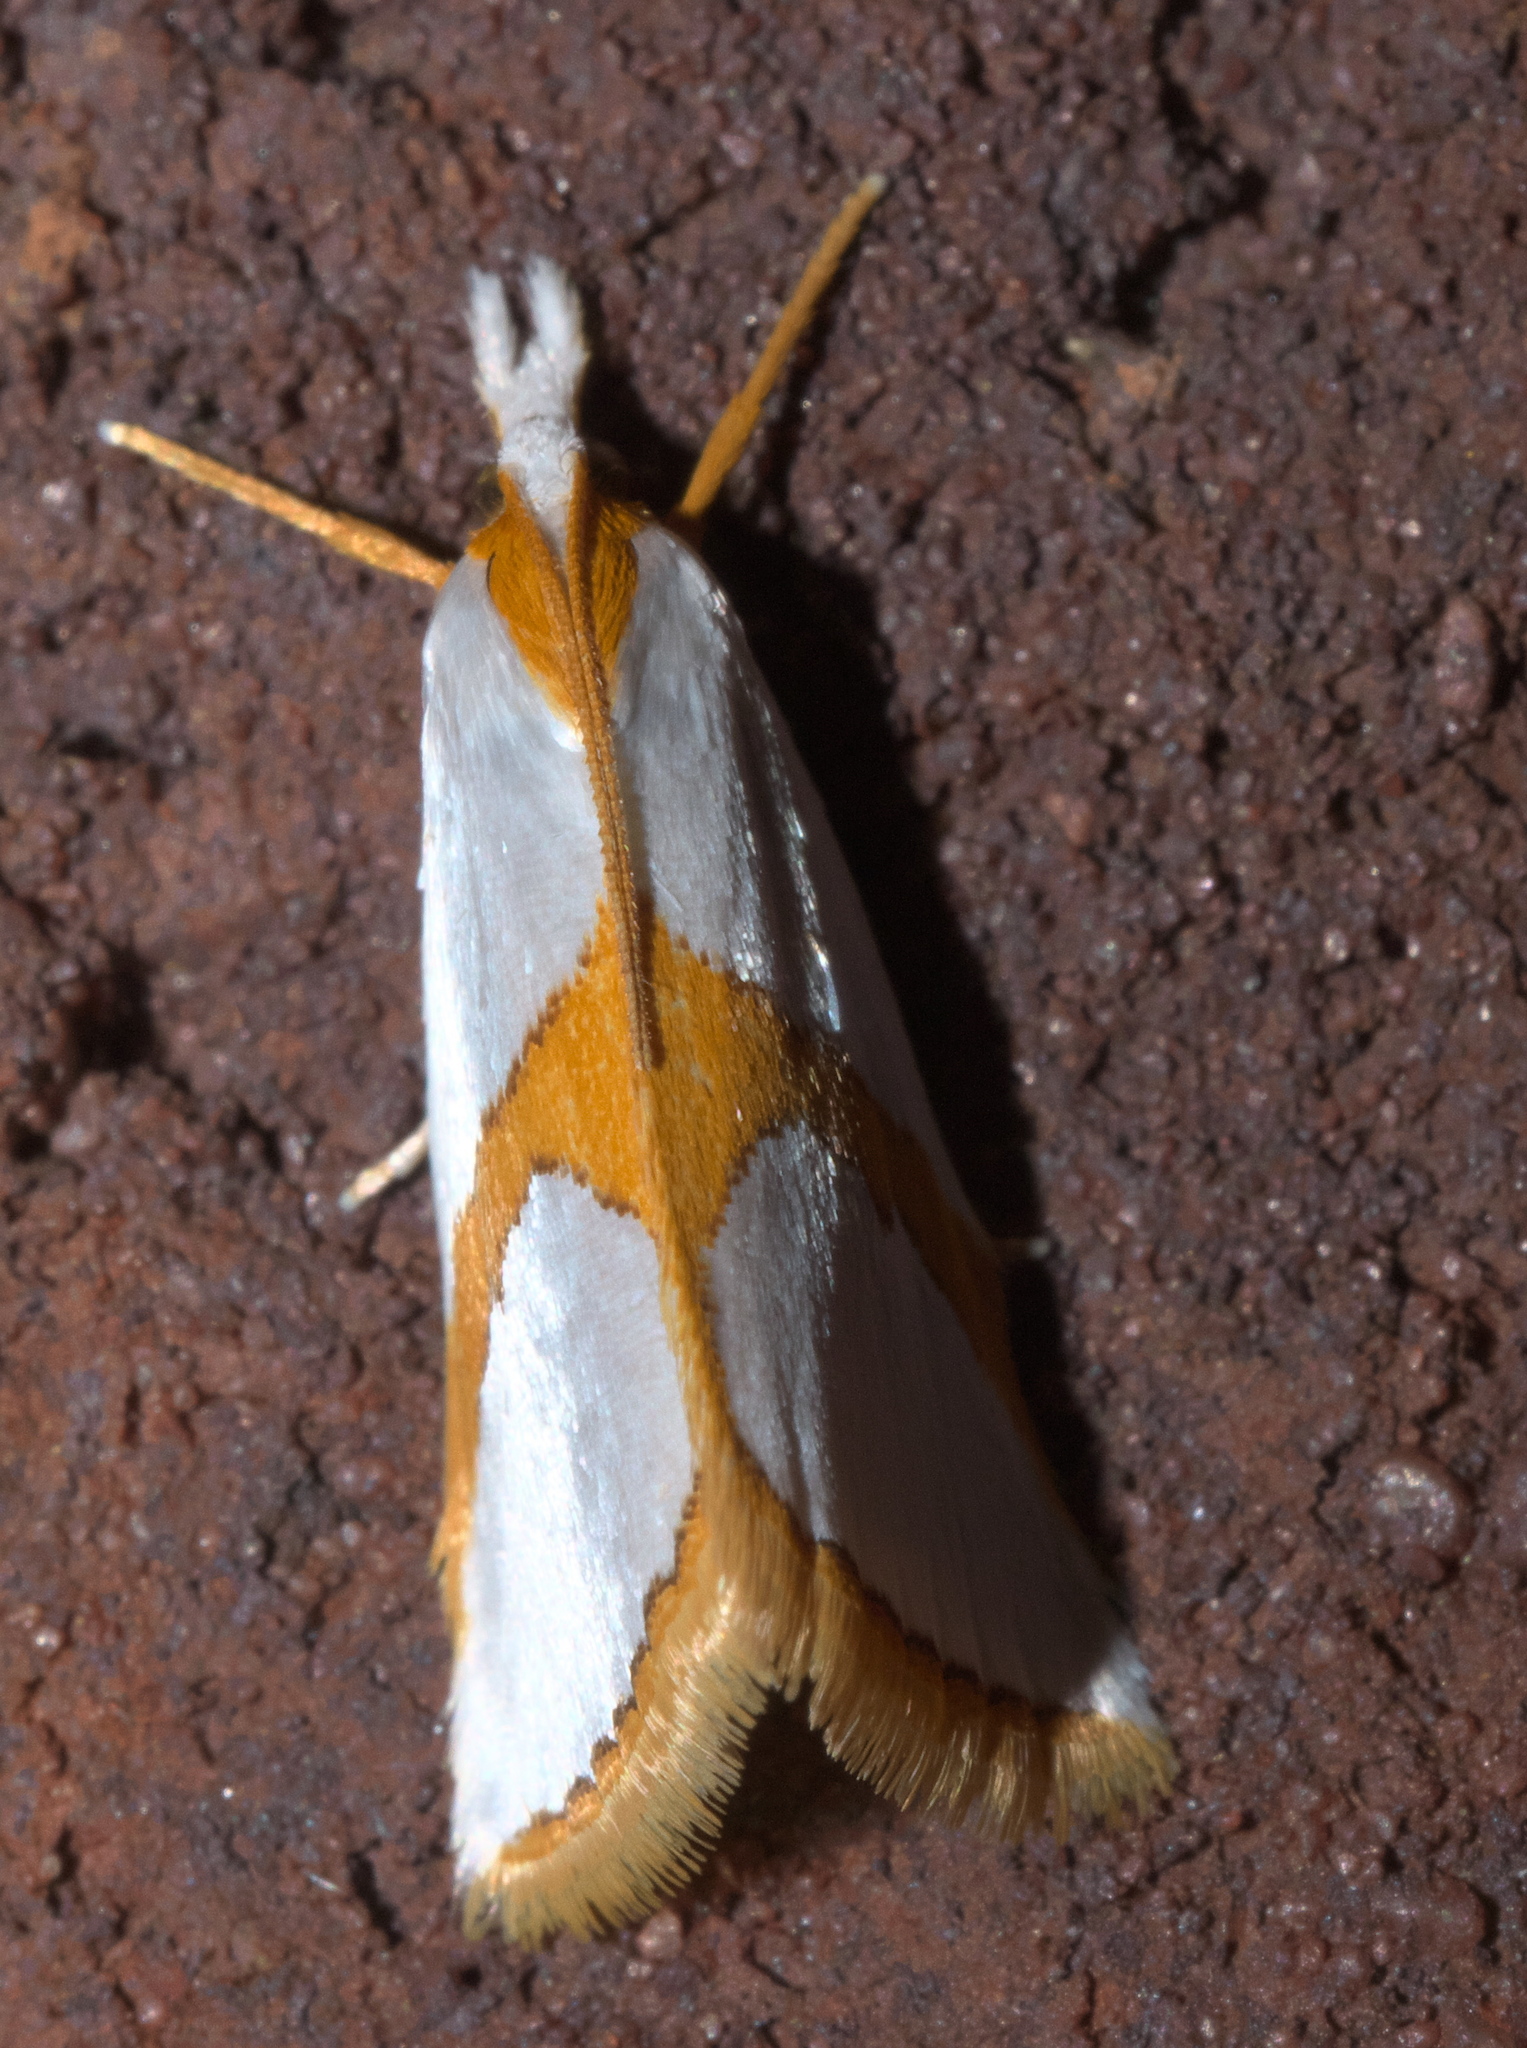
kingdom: Animalia
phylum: Arthropoda
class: Insecta
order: Lepidoptera
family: Crambidae
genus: Argyria
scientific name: Argyria auratella
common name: Curve-lined argyria moth
